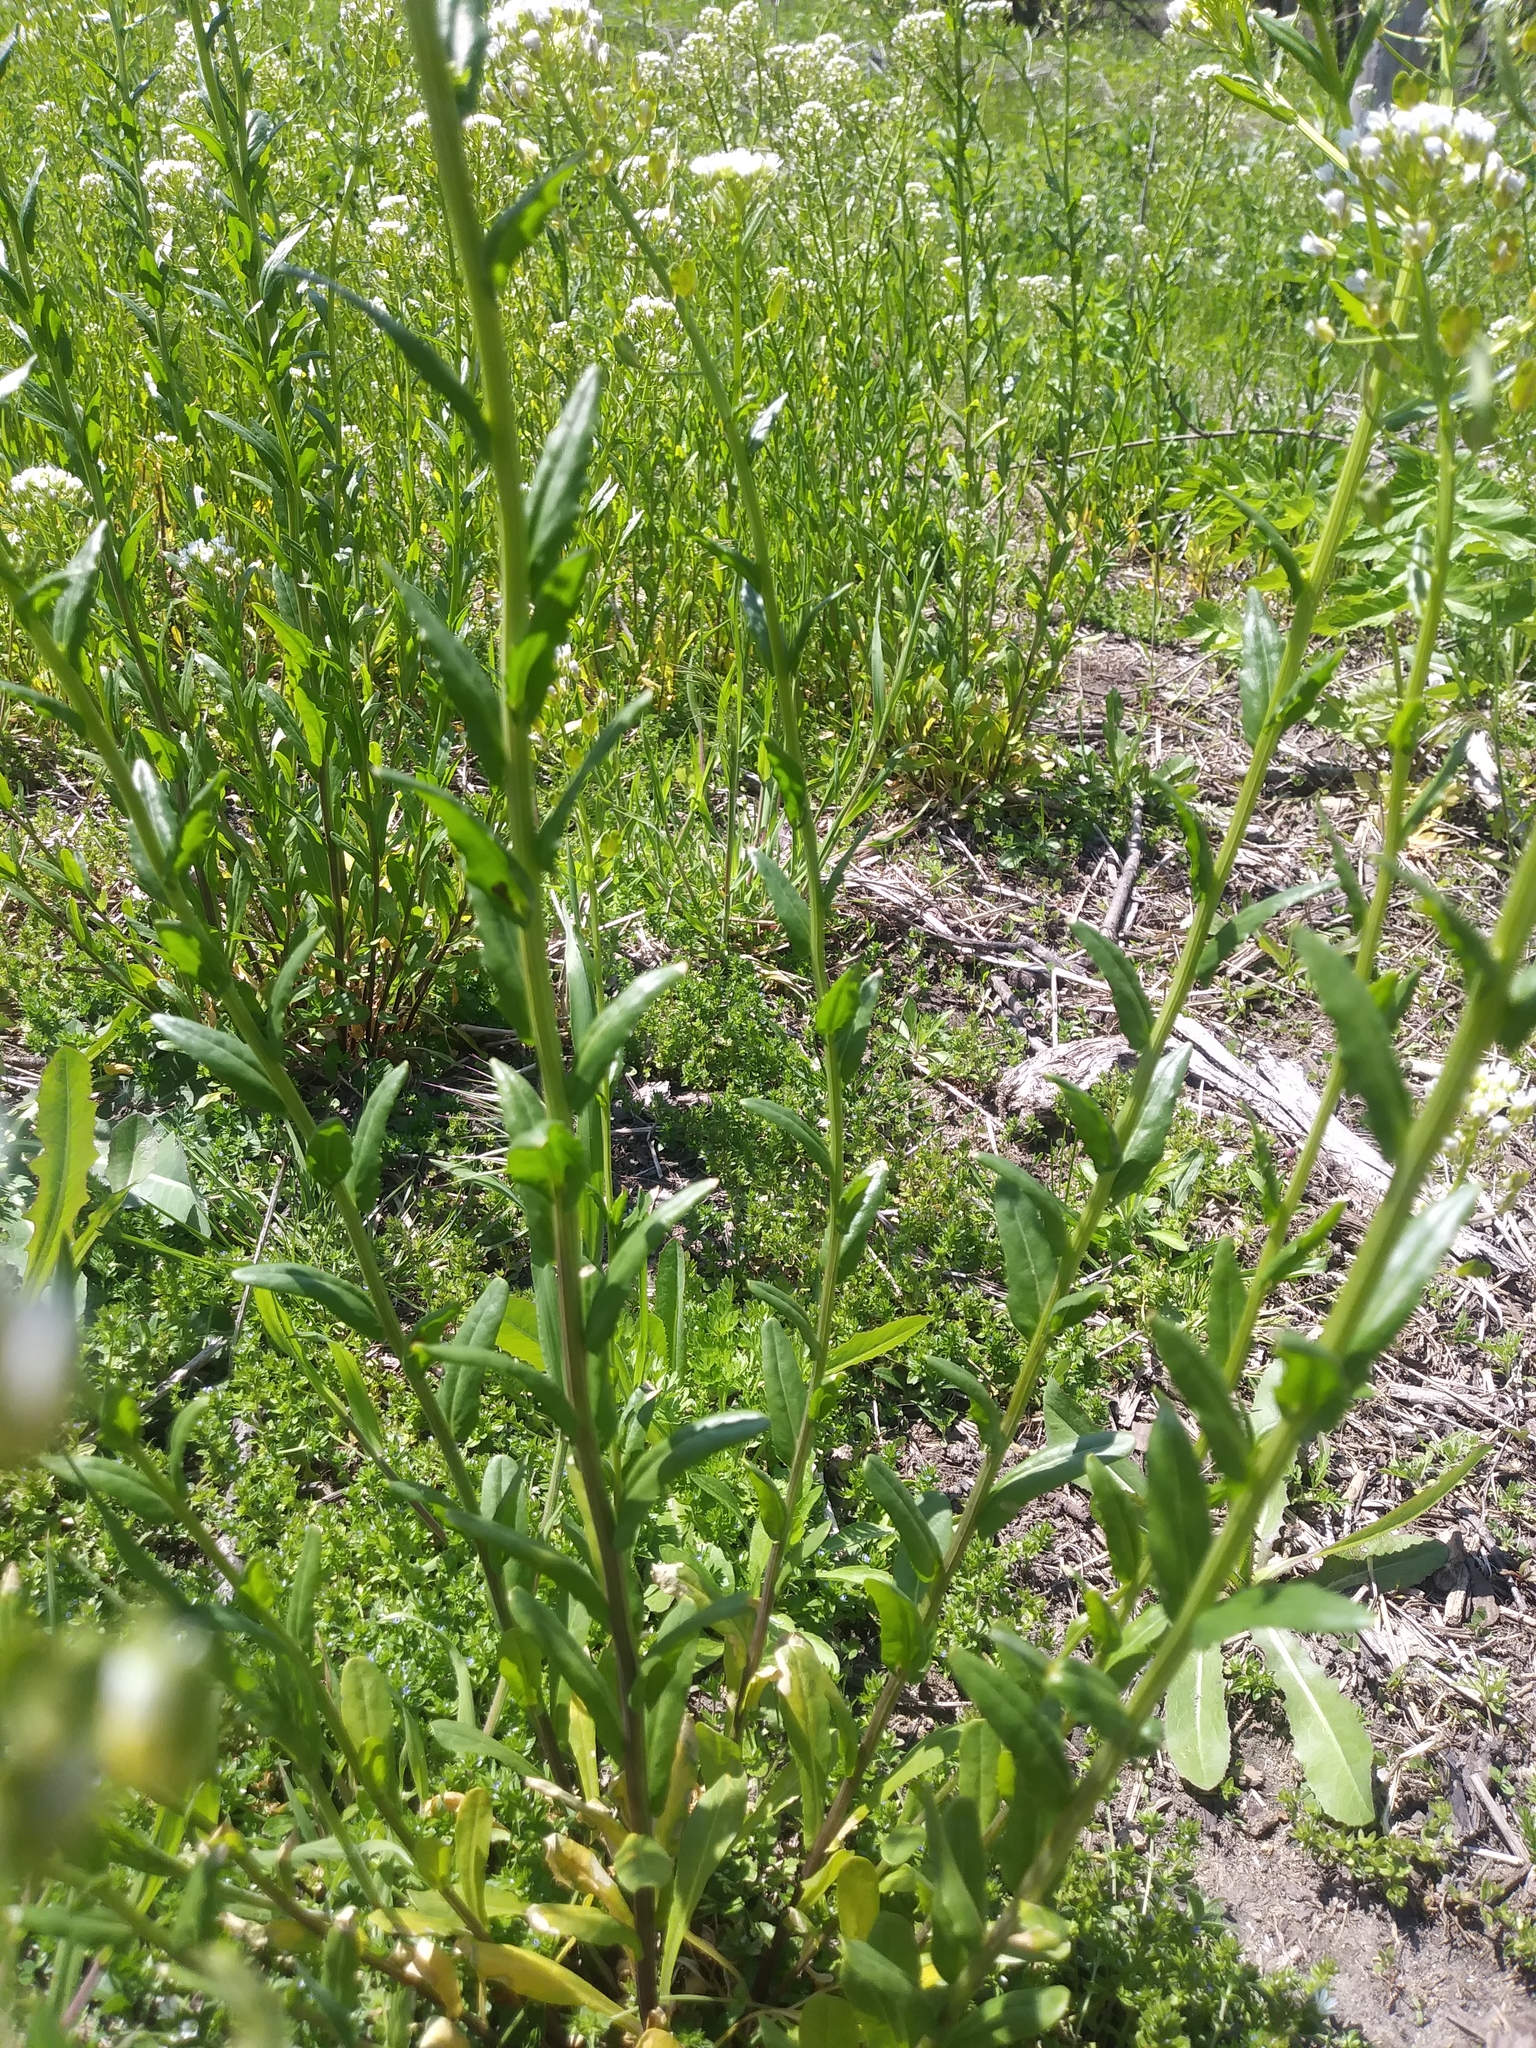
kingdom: Plantae
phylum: Tracheophyta
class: Magnoliopsida
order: Brassicales
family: Brassicaceae
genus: Thlaspi
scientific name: Thlaspi arvense
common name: Field pennycress
